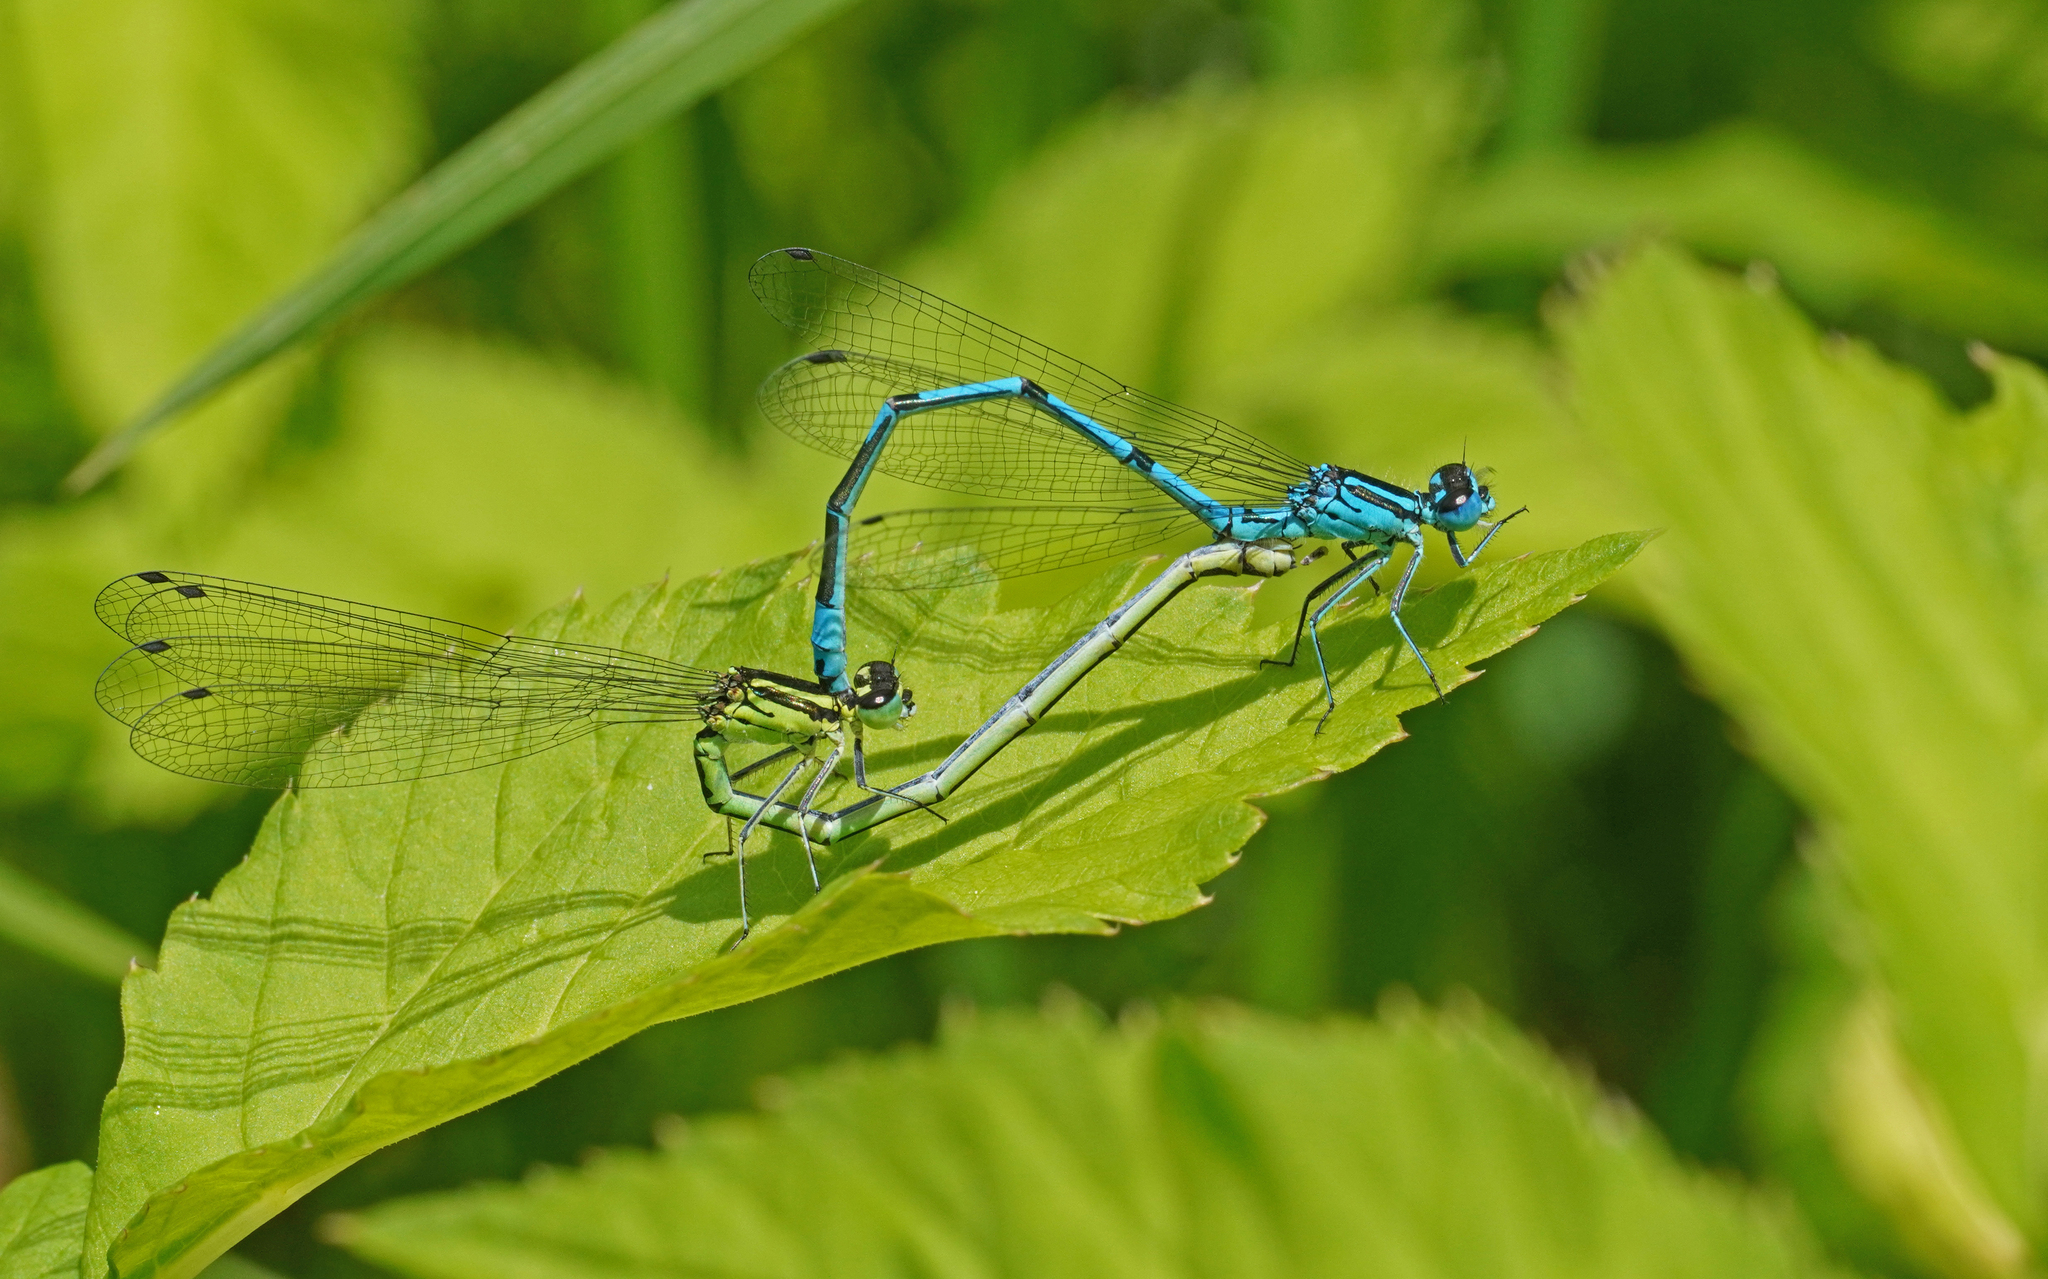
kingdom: Animalia
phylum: Arthropoda
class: Insecta
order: Odonata
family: Coenagrionidae
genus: Coenagrion
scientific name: Coenagrion puella
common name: Azure damselfly
